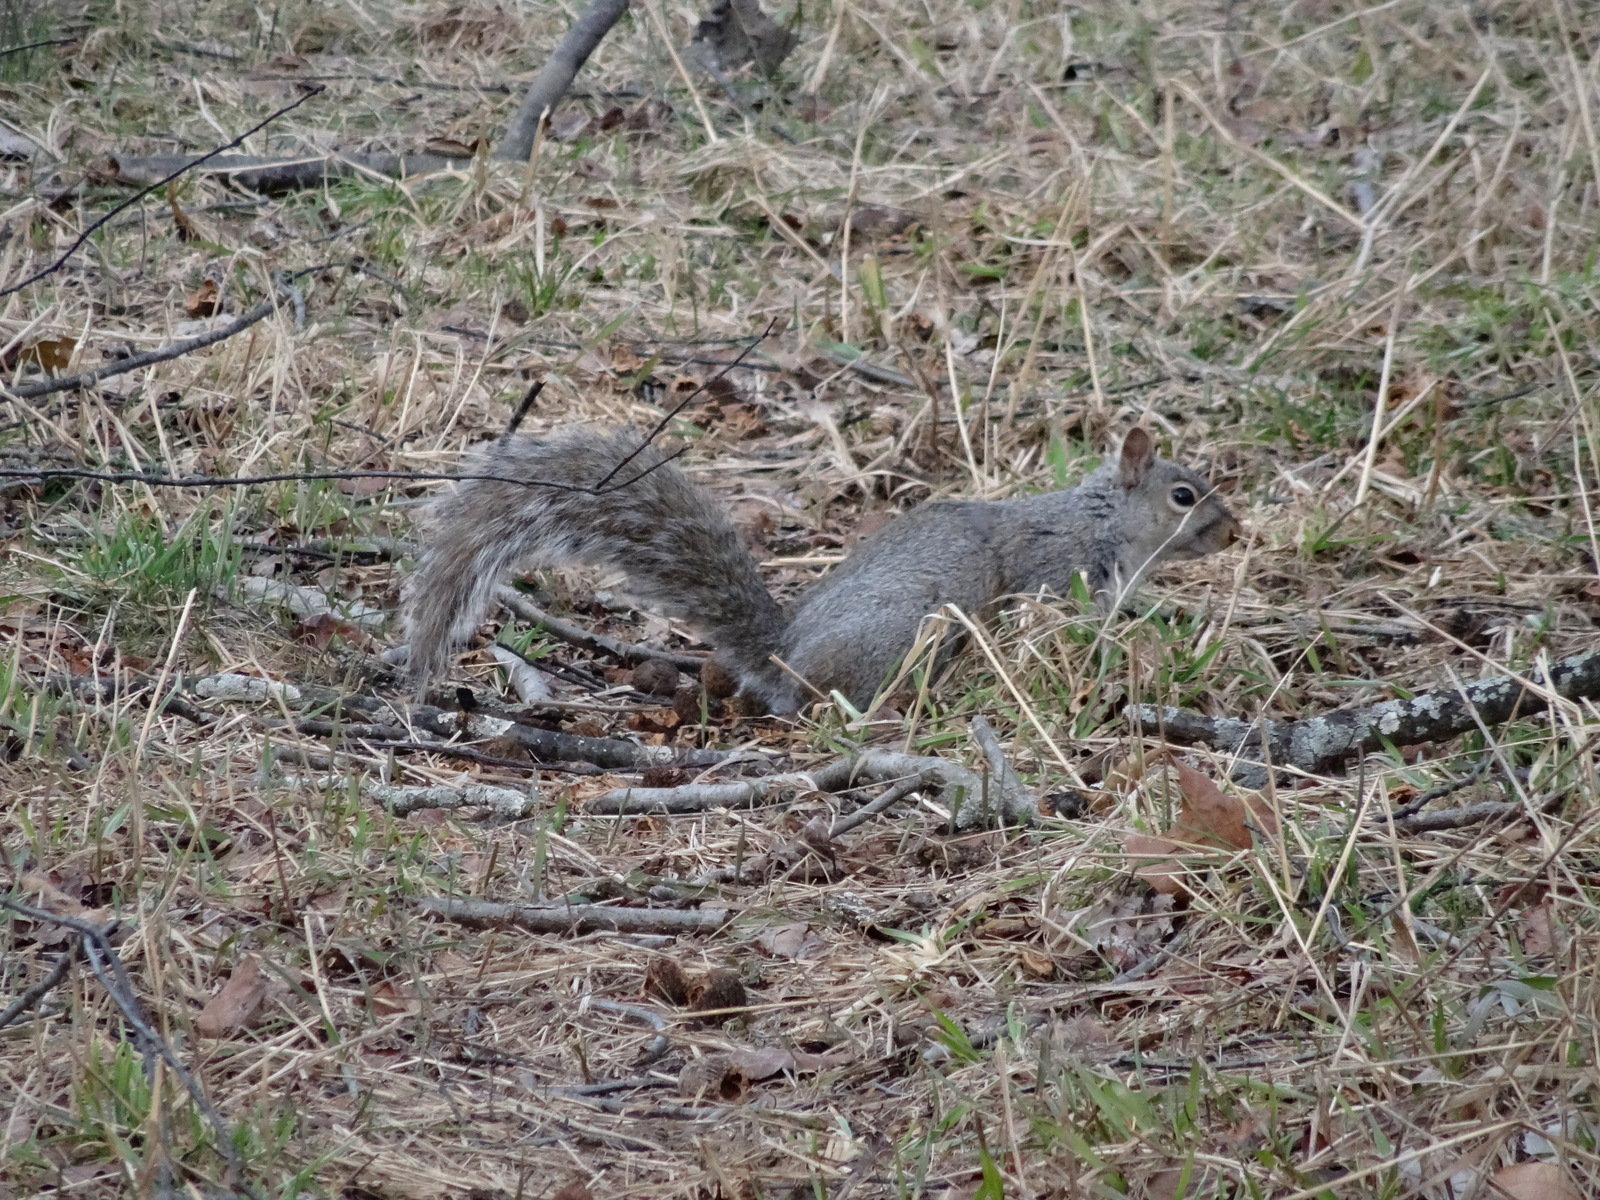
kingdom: Animalia
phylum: Chordata
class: Mammalia
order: Rodentia
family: Sciuridae
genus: Sciurus
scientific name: Sciurus carolinensis
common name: Eastern gray squirrel
